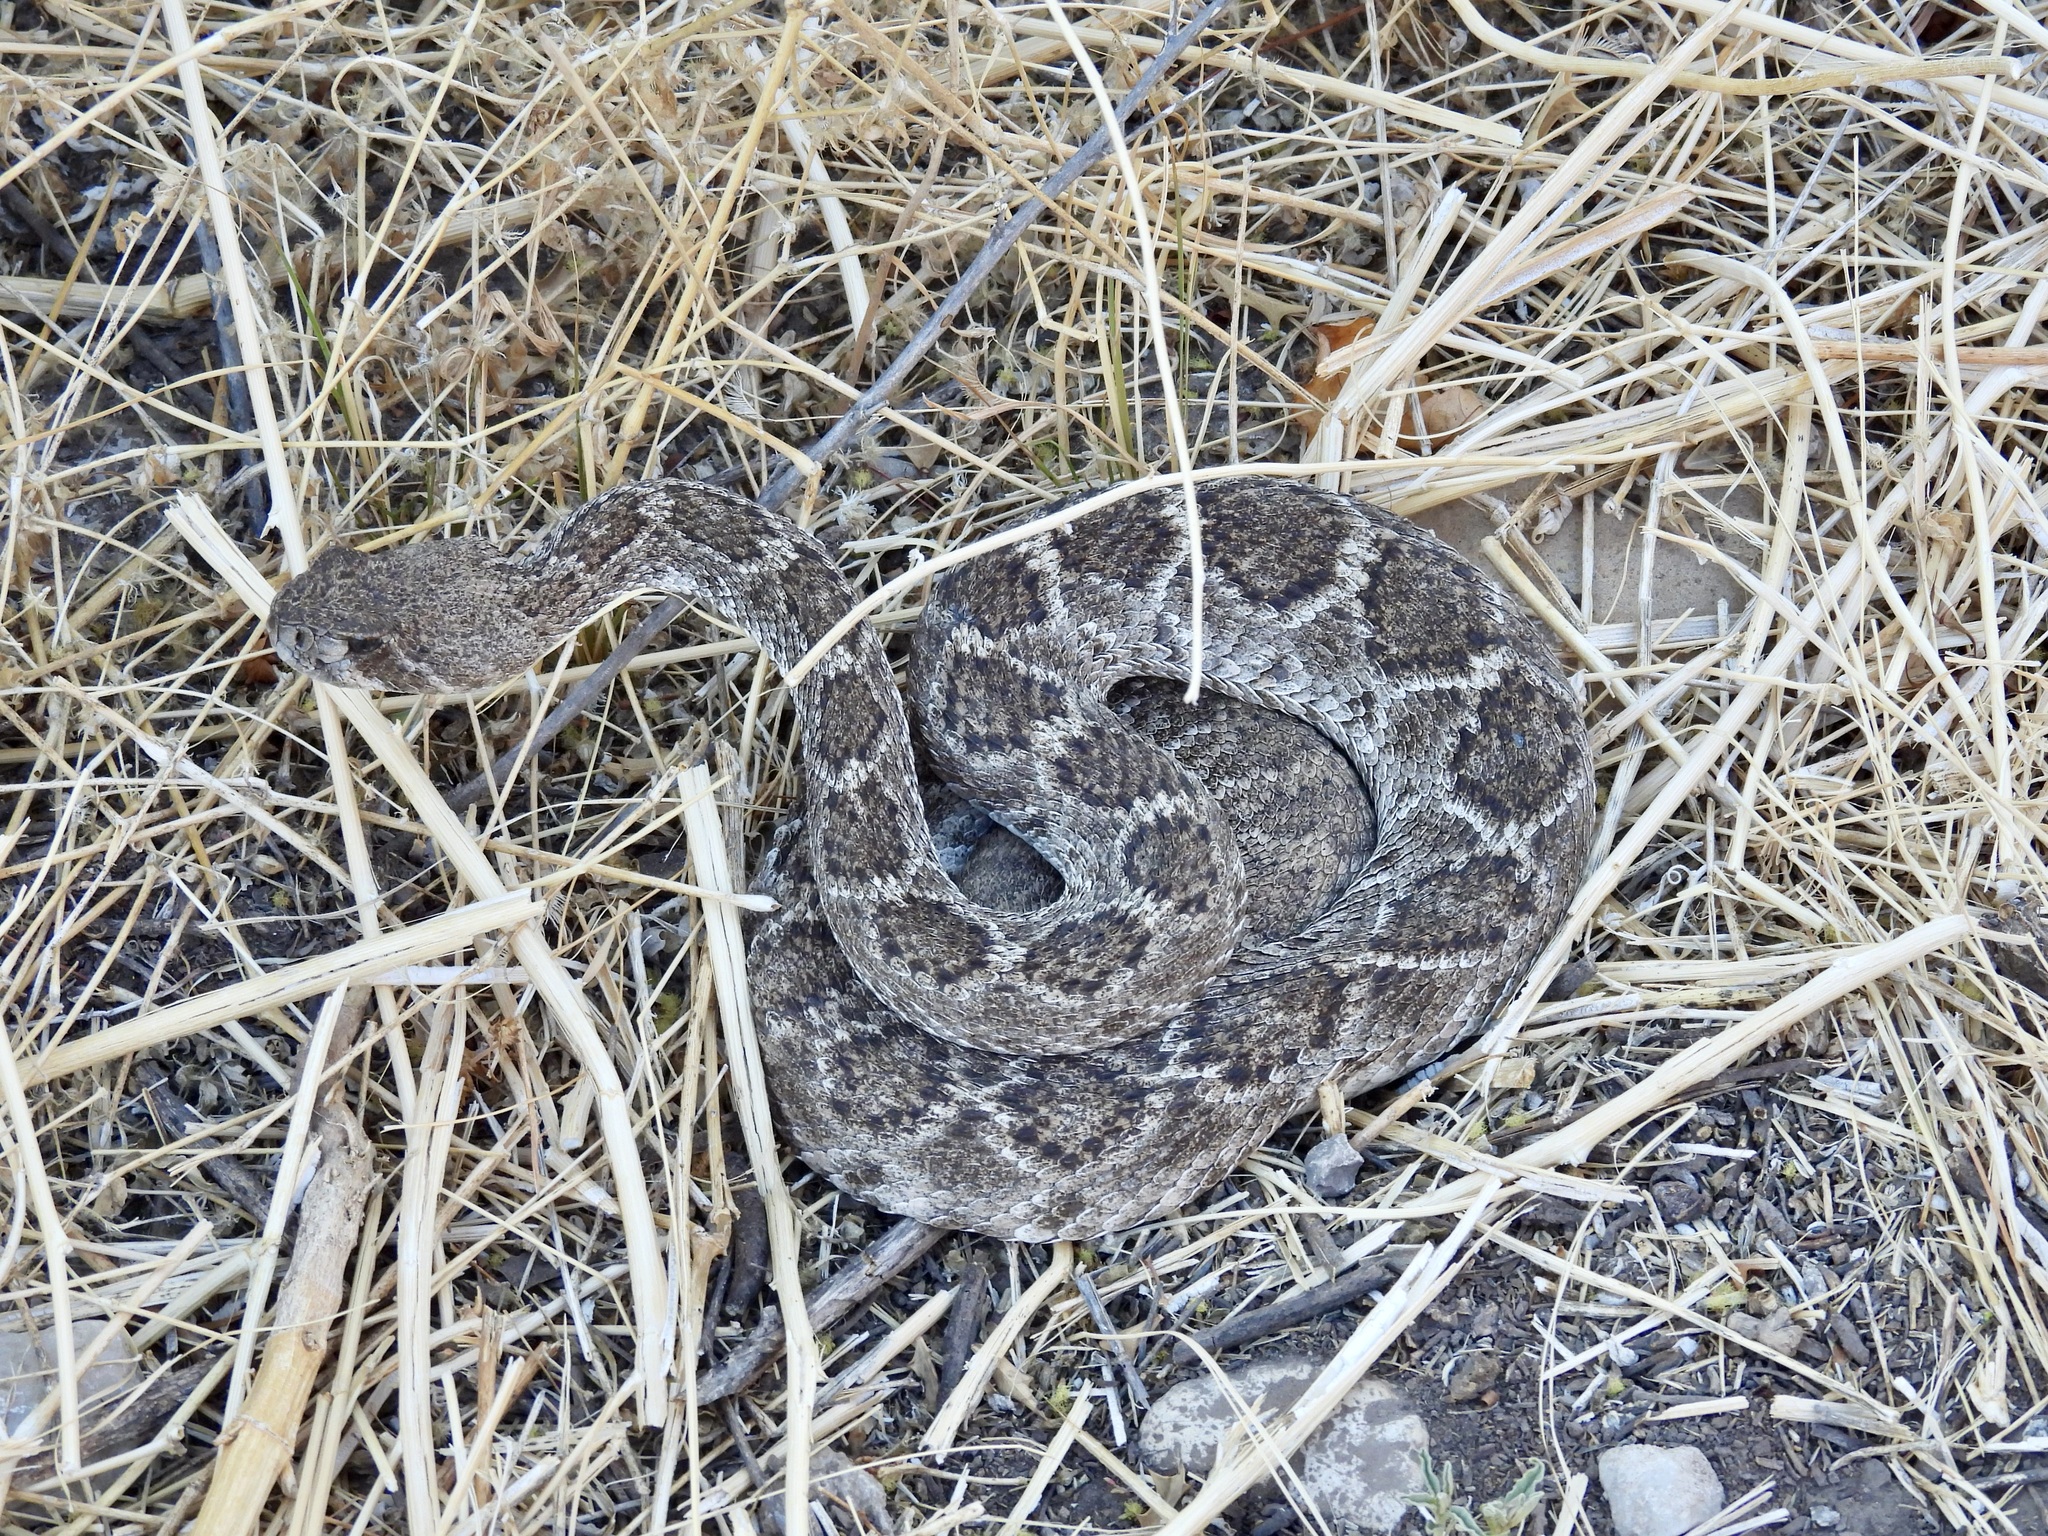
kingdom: Animalia
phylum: Chordata
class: Squamata
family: Viperidae
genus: Crotalus
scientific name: Crotalus atrox
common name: Western diamond-backed rattlesnake
